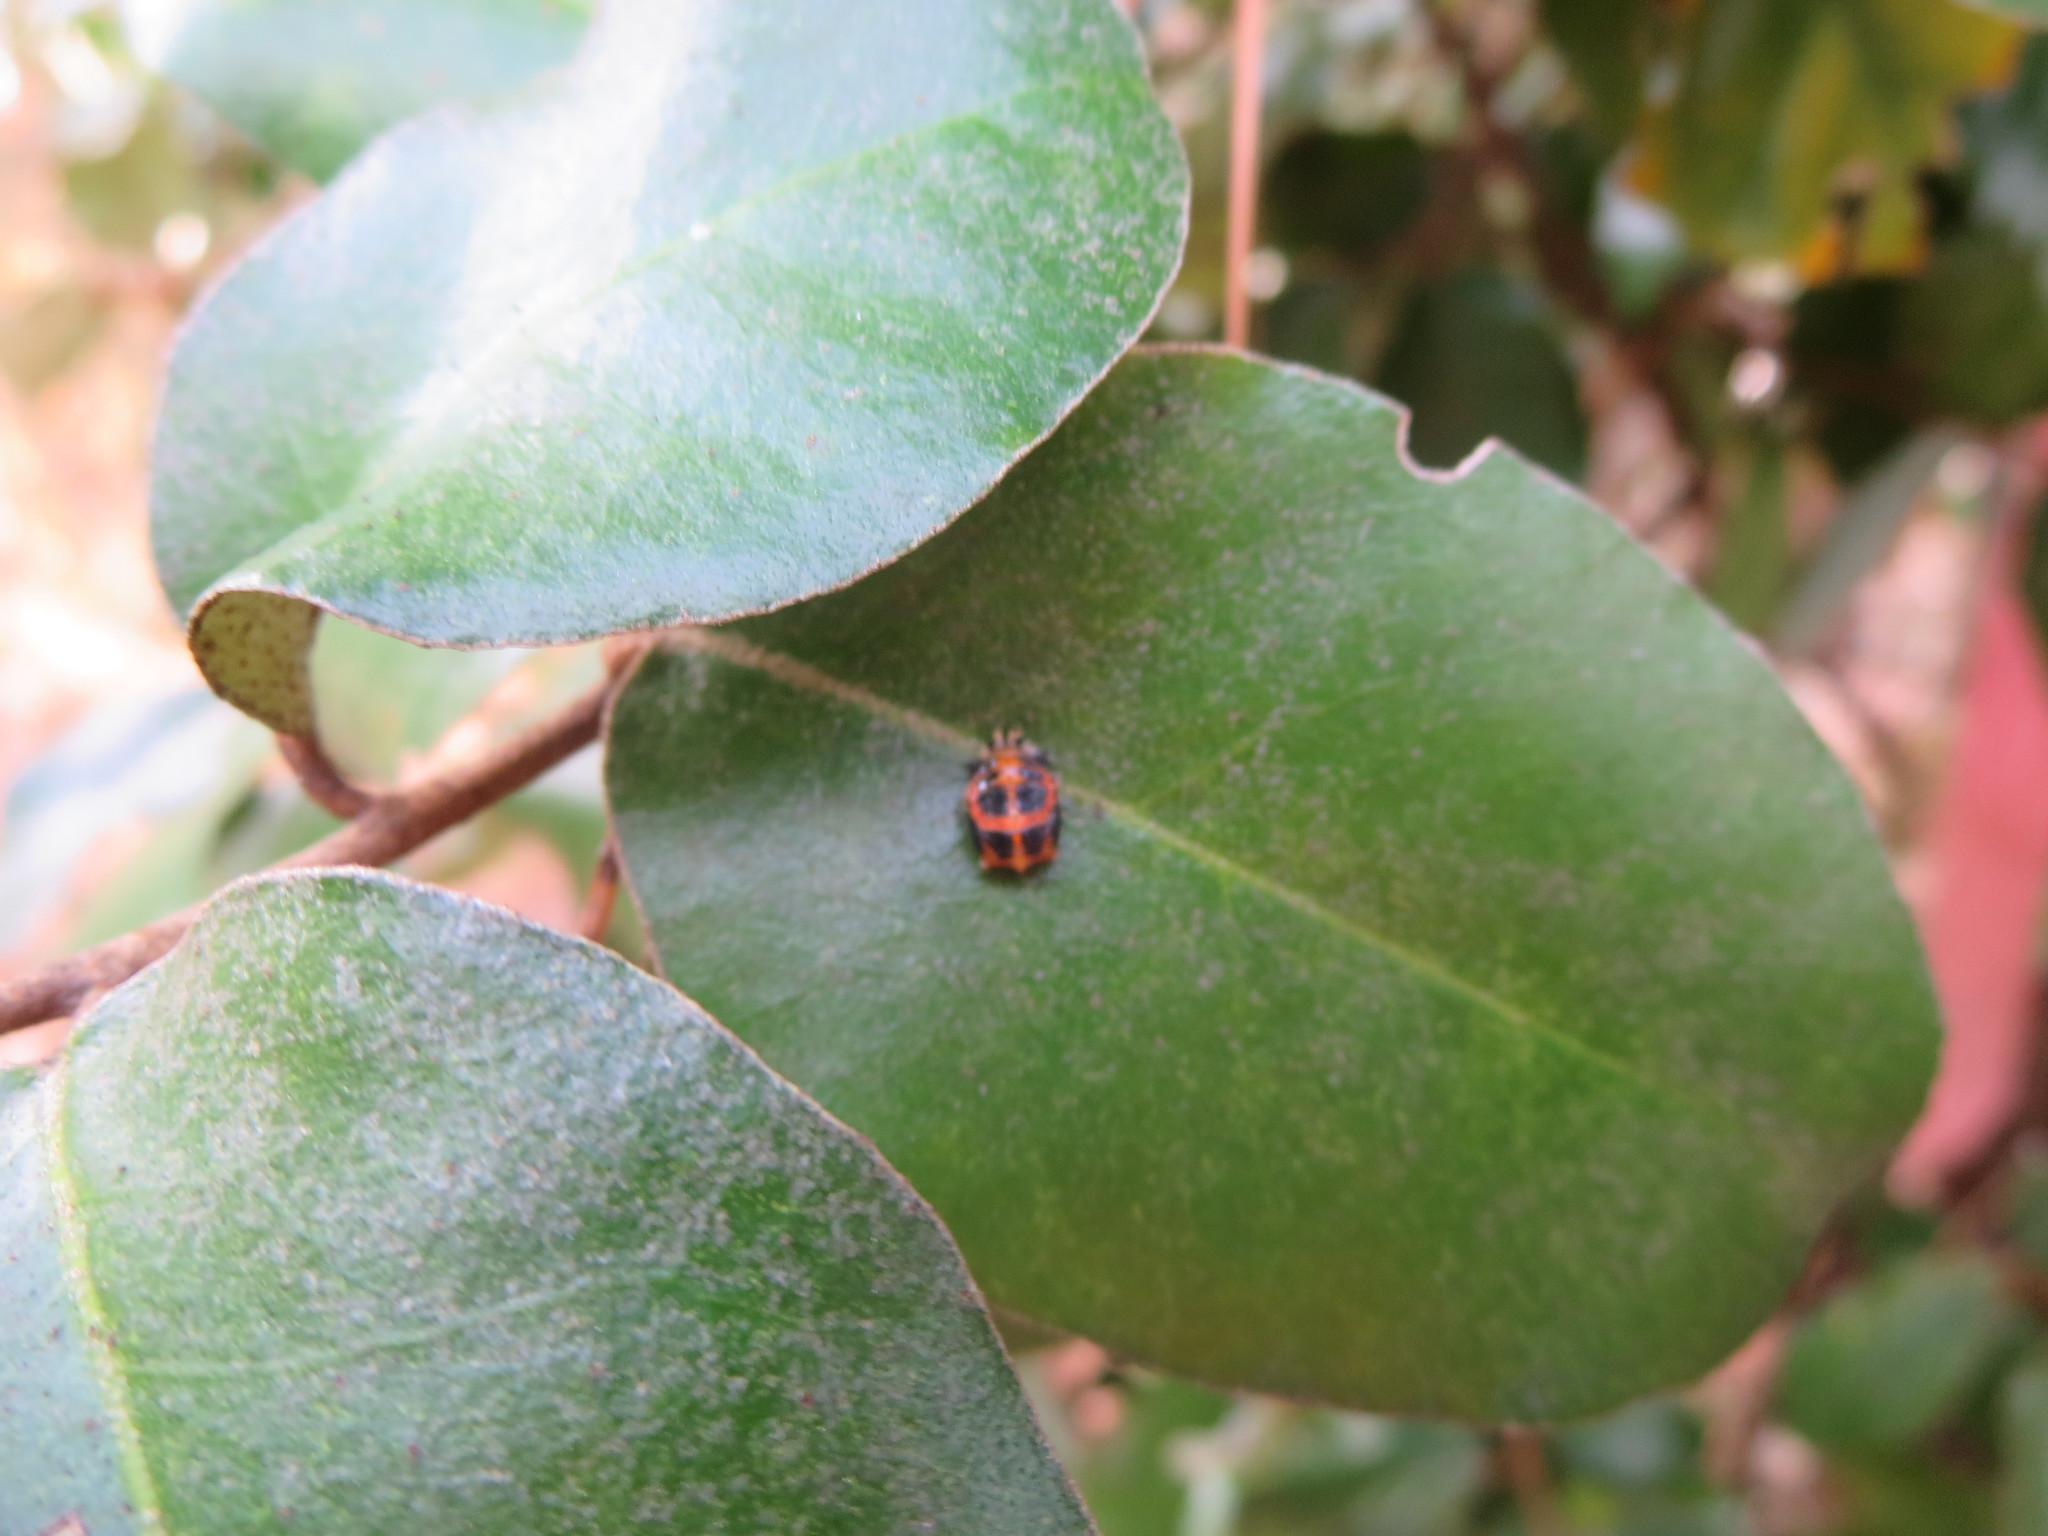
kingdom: Animalia
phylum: Arthropoda
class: Insecta
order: Coleoptera
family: Coccinellidae
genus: Harmonia
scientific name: Harmonia axyridis
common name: Harlequin ladybird
